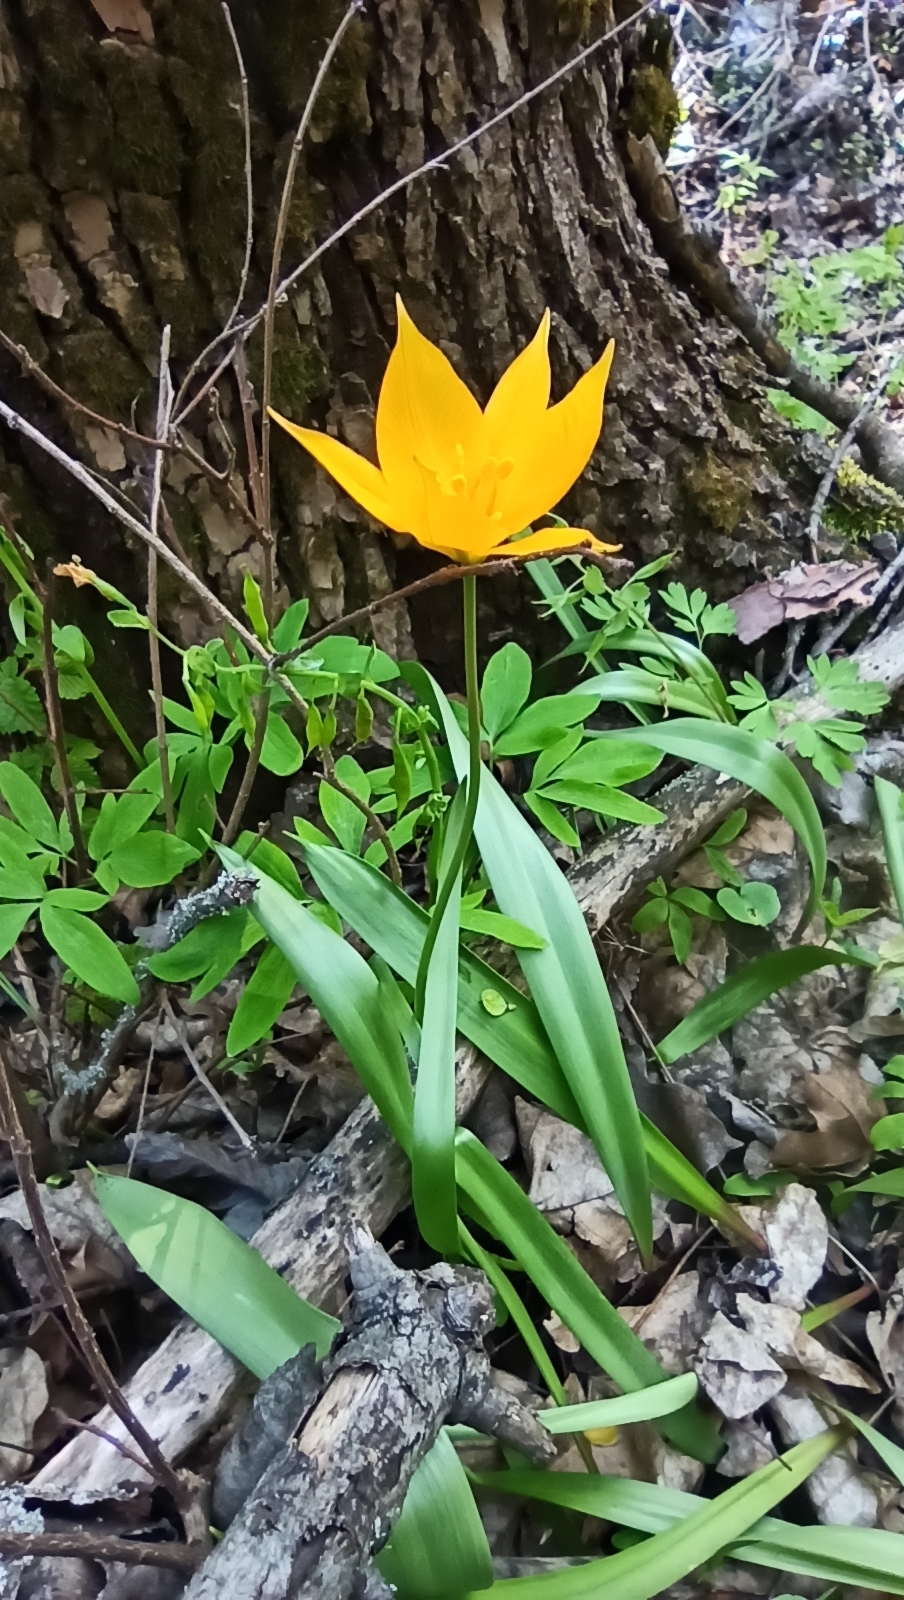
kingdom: Plantae
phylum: Tracheophyta
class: Liliopsida
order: Liliales
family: Liliaceae
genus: Tulipa
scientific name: Tulipa sylvestris
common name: Wild tulip
